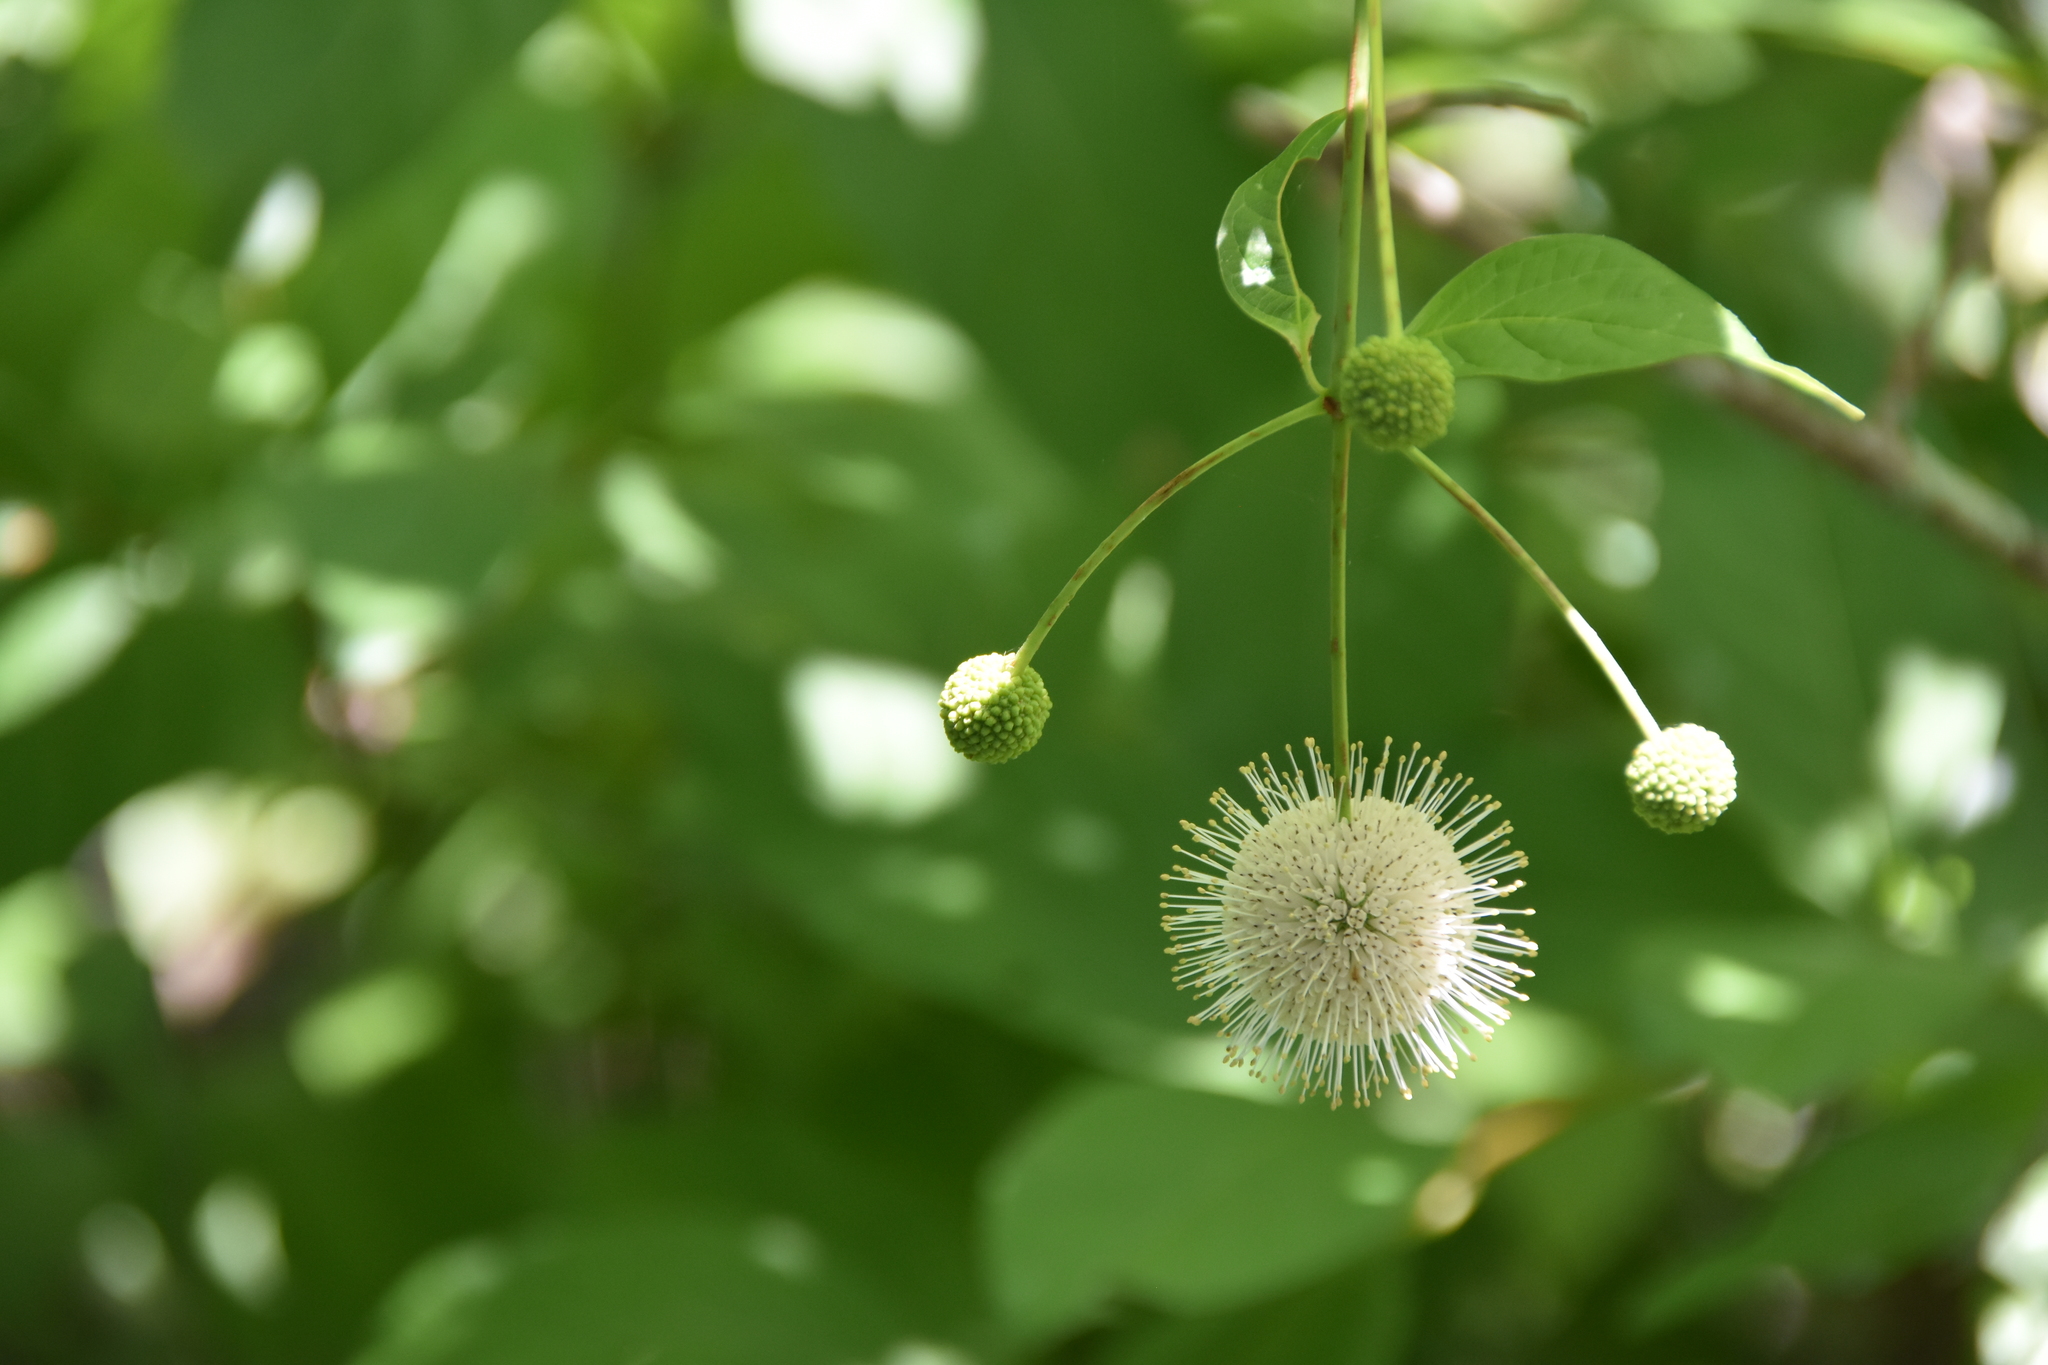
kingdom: Plantae
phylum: Tracheophyta
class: Magnoliopsida
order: Gentianales
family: Rubiaceae
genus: Cephalanthus
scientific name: Cephalanthus occidentalis
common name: Button-willow
